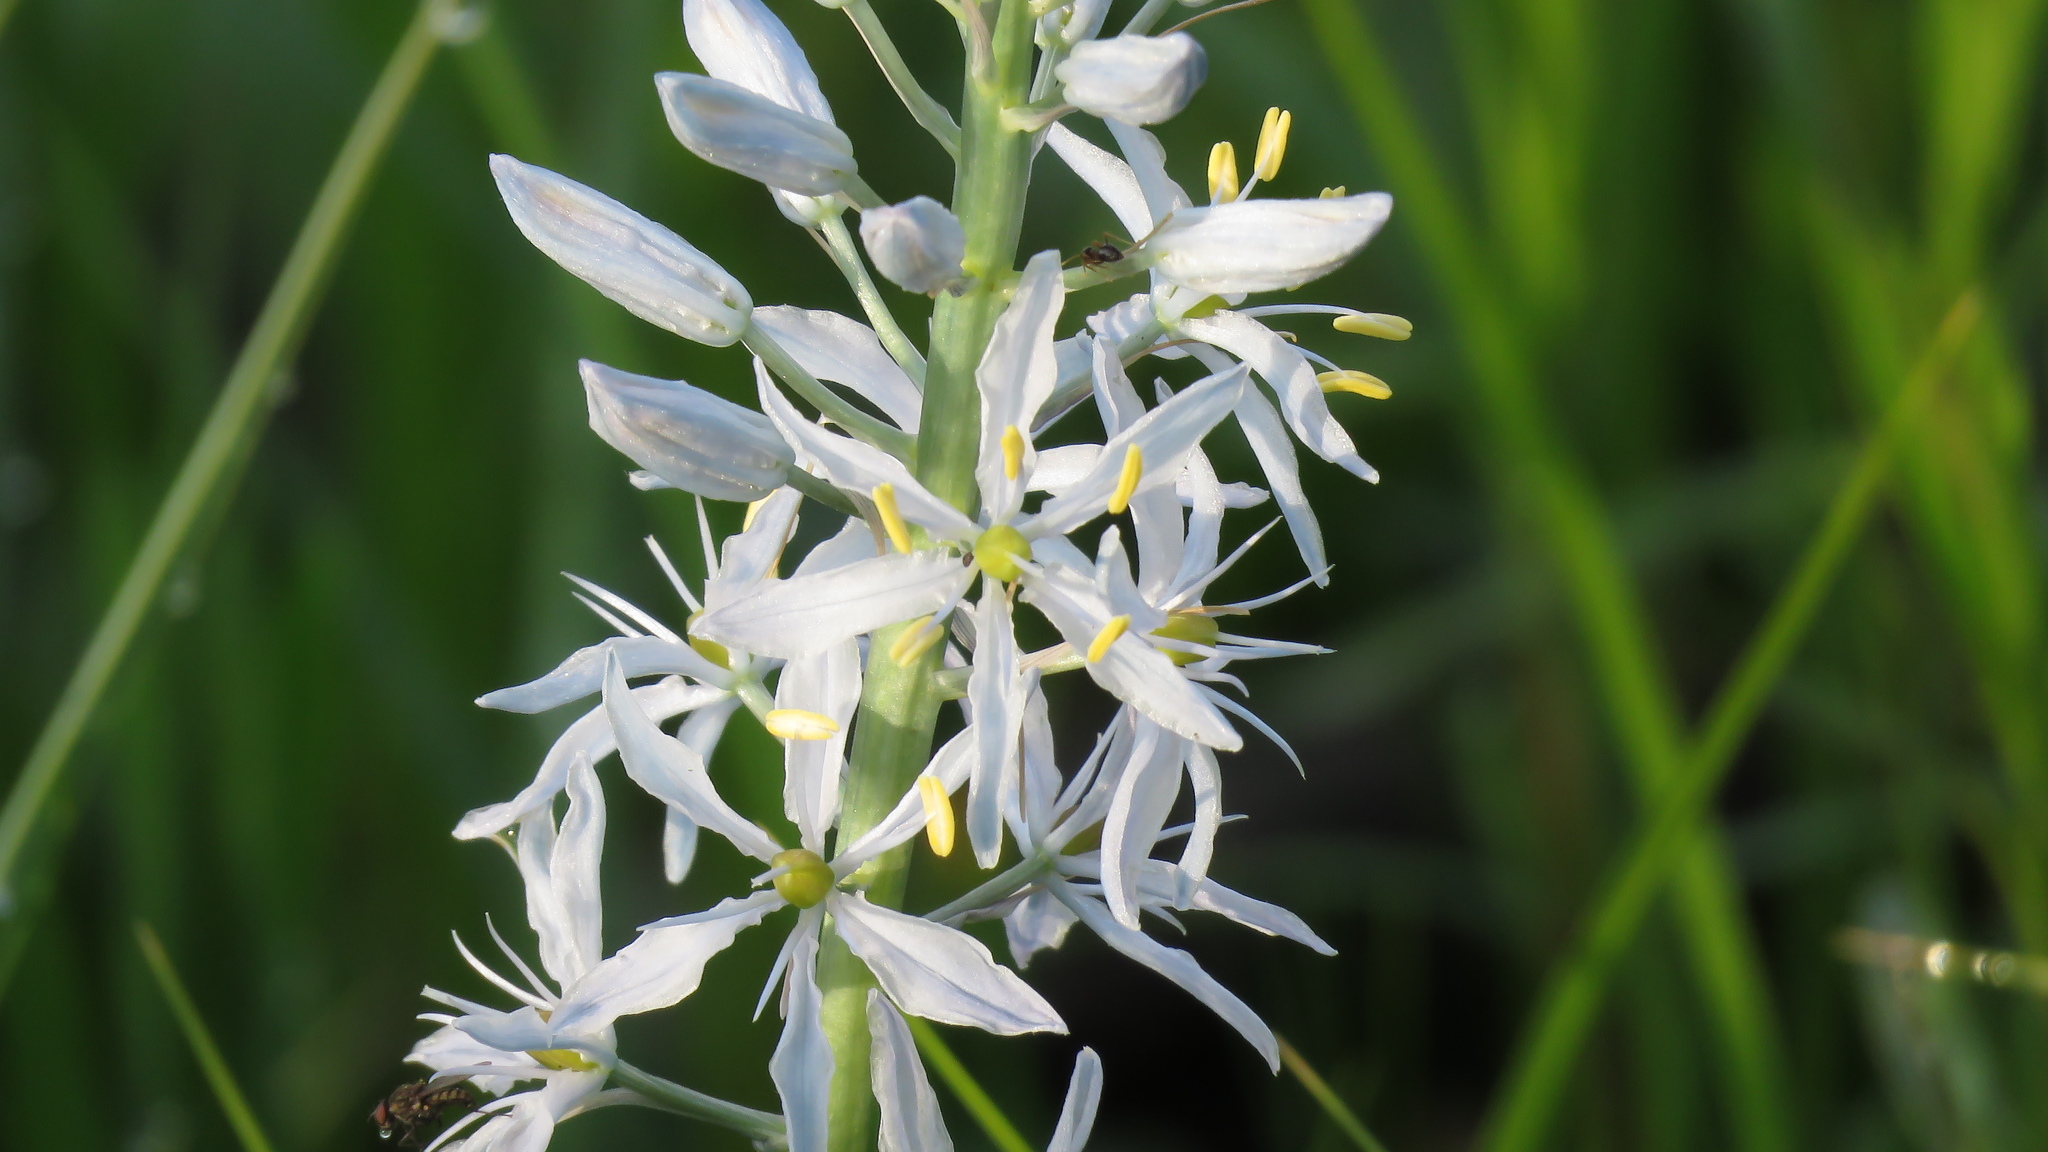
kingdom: Plantae
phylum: Tracheophyta
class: Liliopsida
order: Asparagales
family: Asparagaceae
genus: Camassia
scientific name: Camassia scilloides
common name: Wild hyacinth
